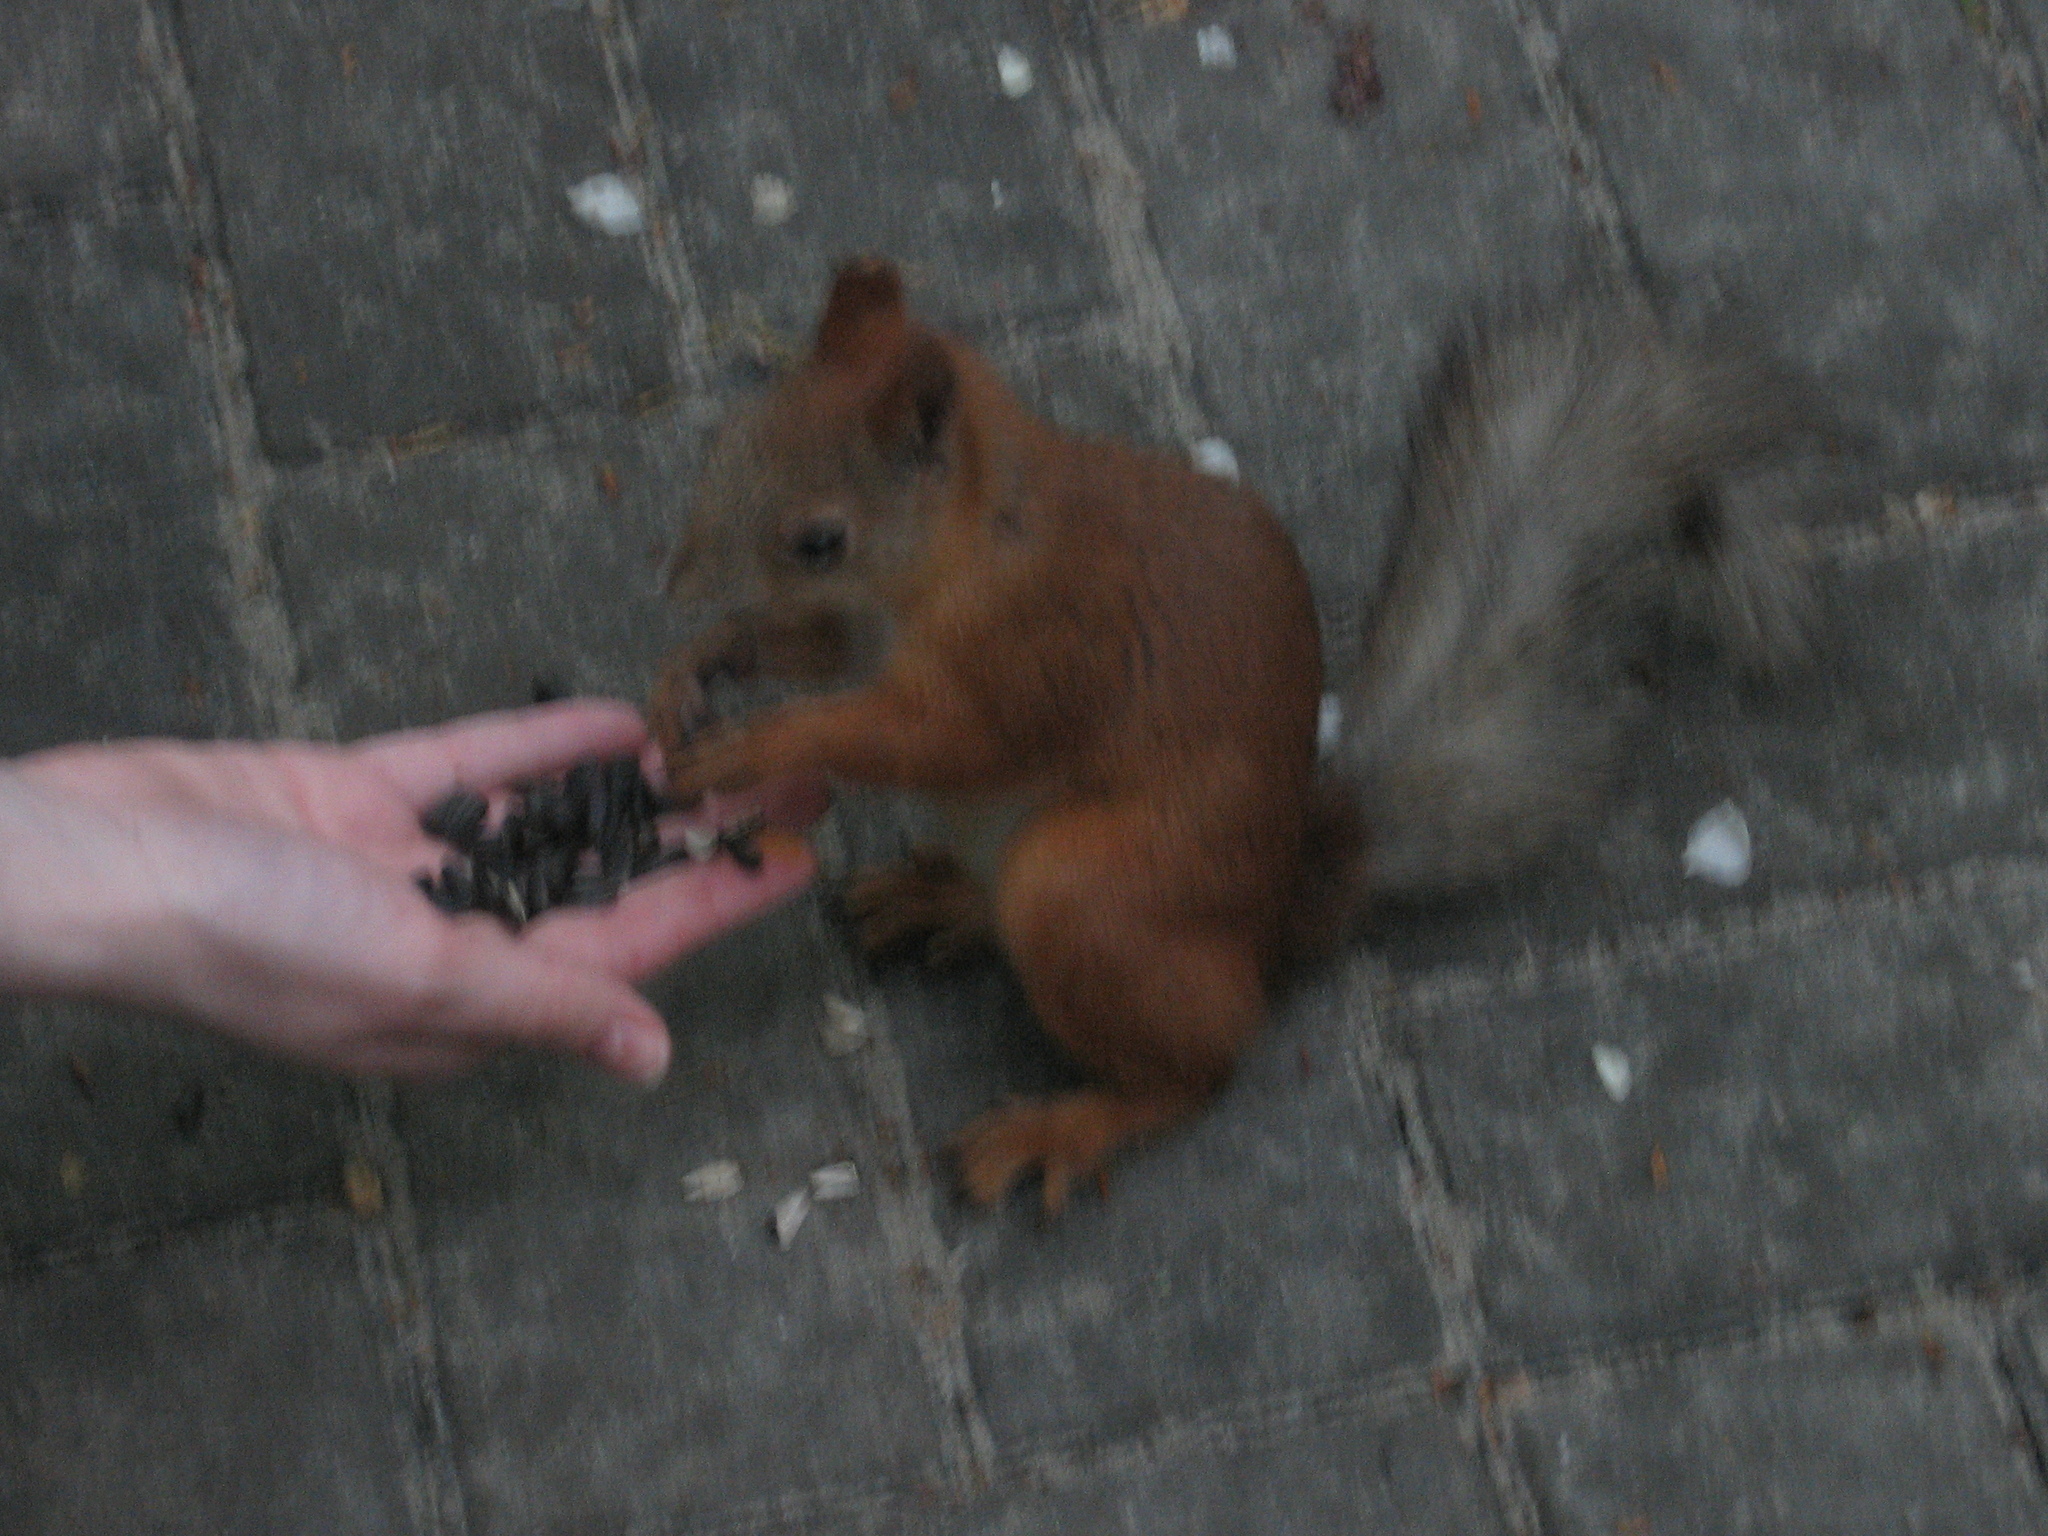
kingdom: Animalia
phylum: Chordata
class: Mammalia
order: Rodentia
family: Sciuridae
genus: Sciurus
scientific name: Sciurus vulgaris
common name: Eurasian red squirrel
